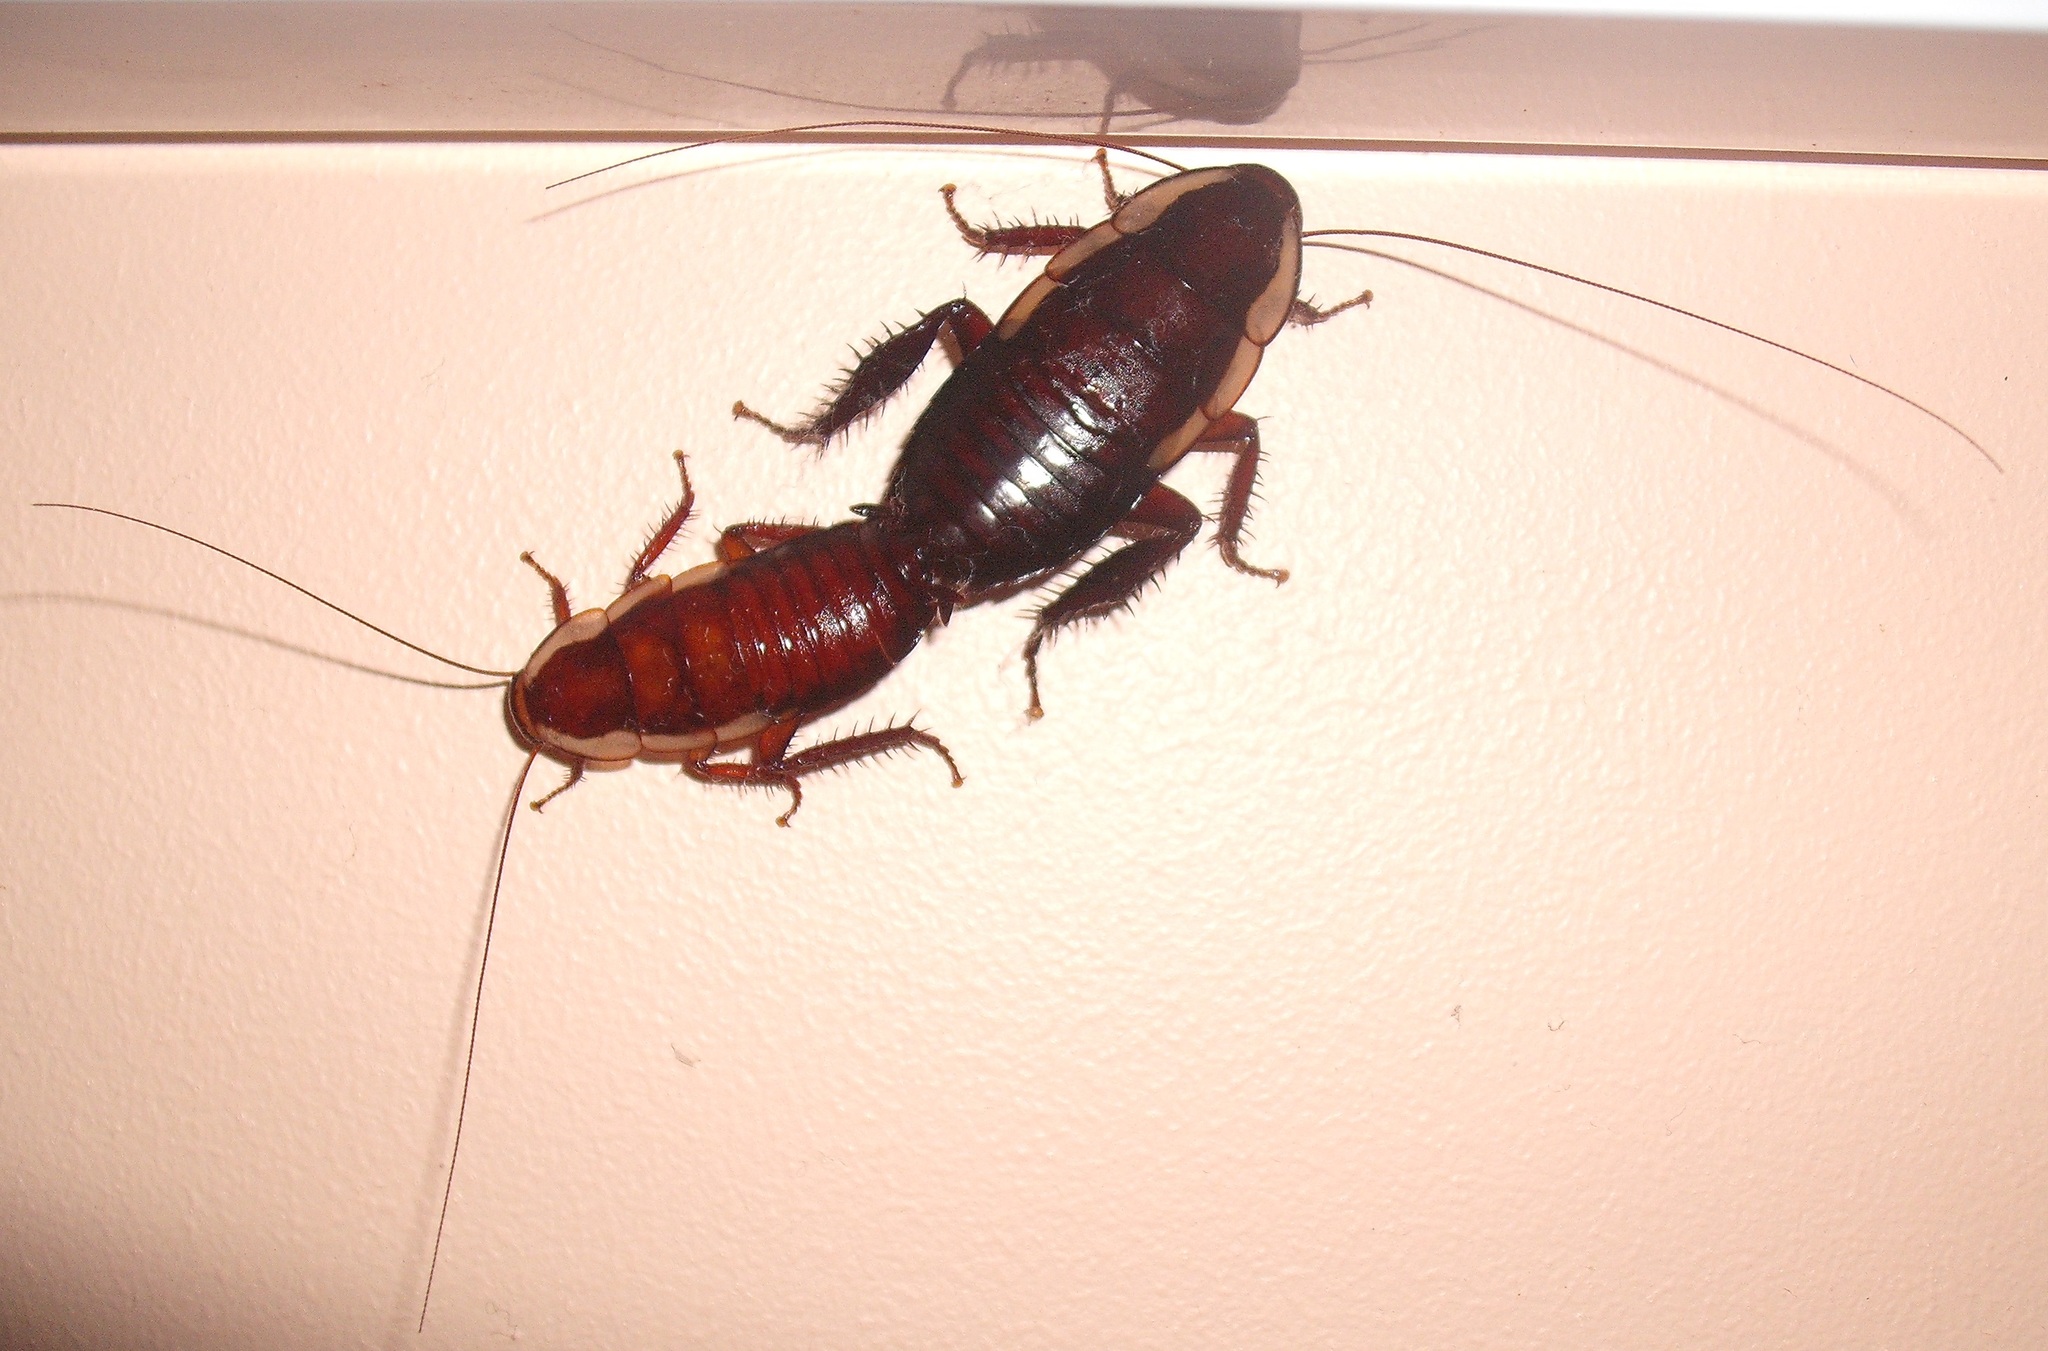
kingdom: Animalia
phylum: Arthropoda
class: Insecta
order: Blattodea
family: Blattidae
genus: Drymaplaneta
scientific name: Drymaplaneta semivitta
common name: Gisborne cockroach
